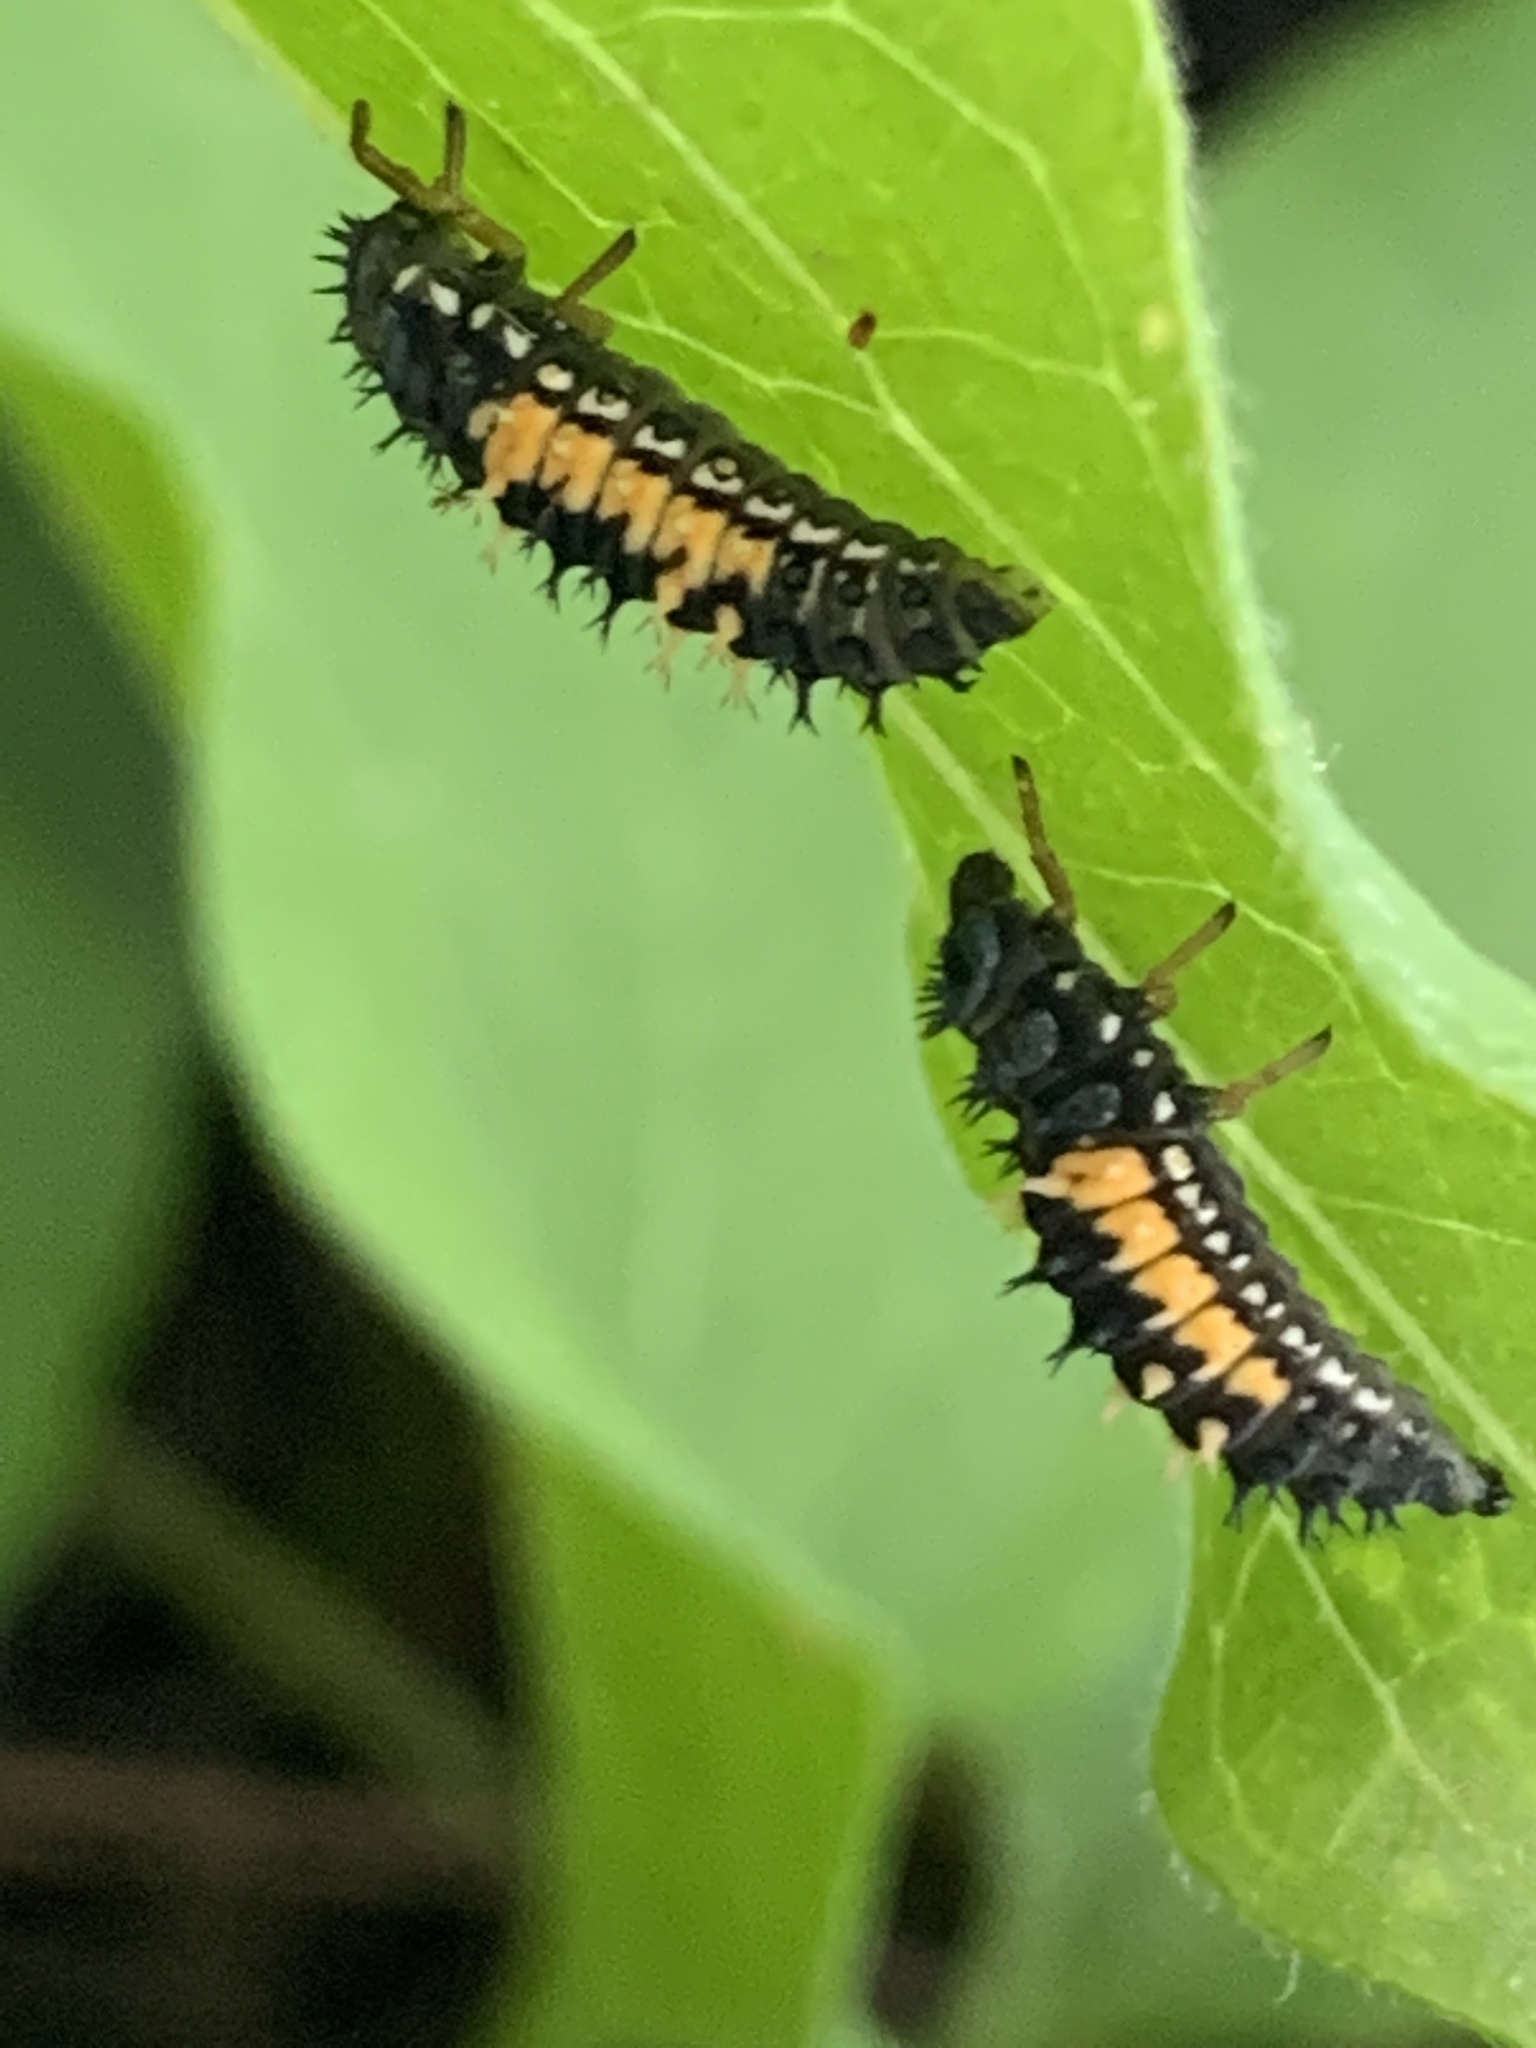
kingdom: Animalia
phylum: Arthropoda
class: Insecta
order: Coleoptera
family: Coccinellidae
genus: Harmonia
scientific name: Harmonia axyridis
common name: Harlequin ladybird
